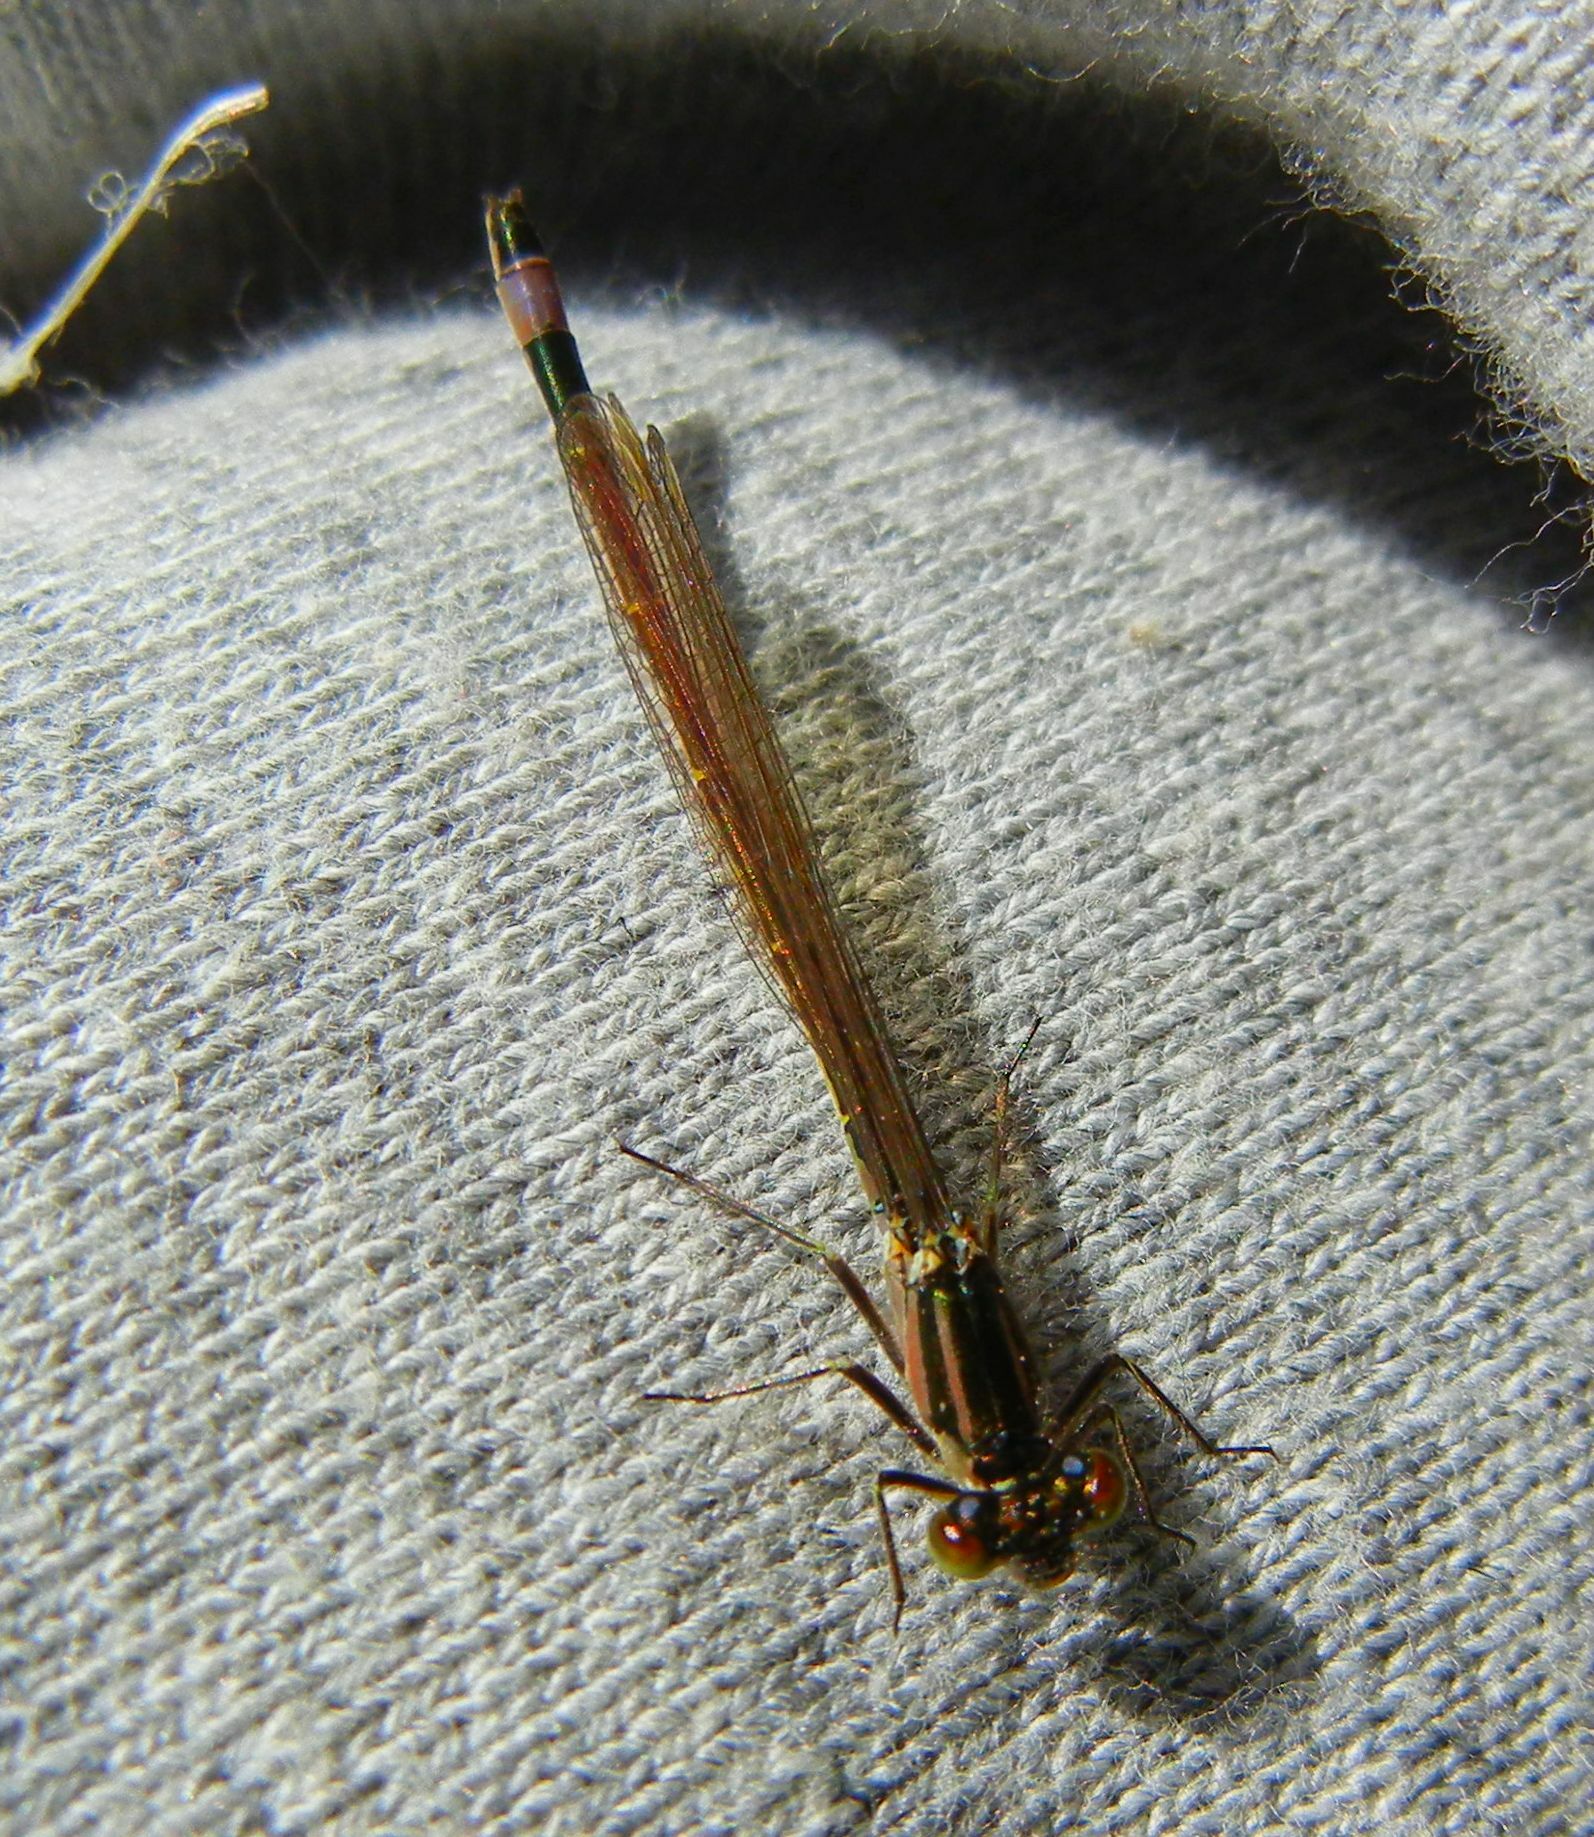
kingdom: Animalia
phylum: Arthropoda
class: Insecta
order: Odonata
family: Coenagrionidae
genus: Ischnura
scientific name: Ischnura elegans
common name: Blue-tailed damselfly
